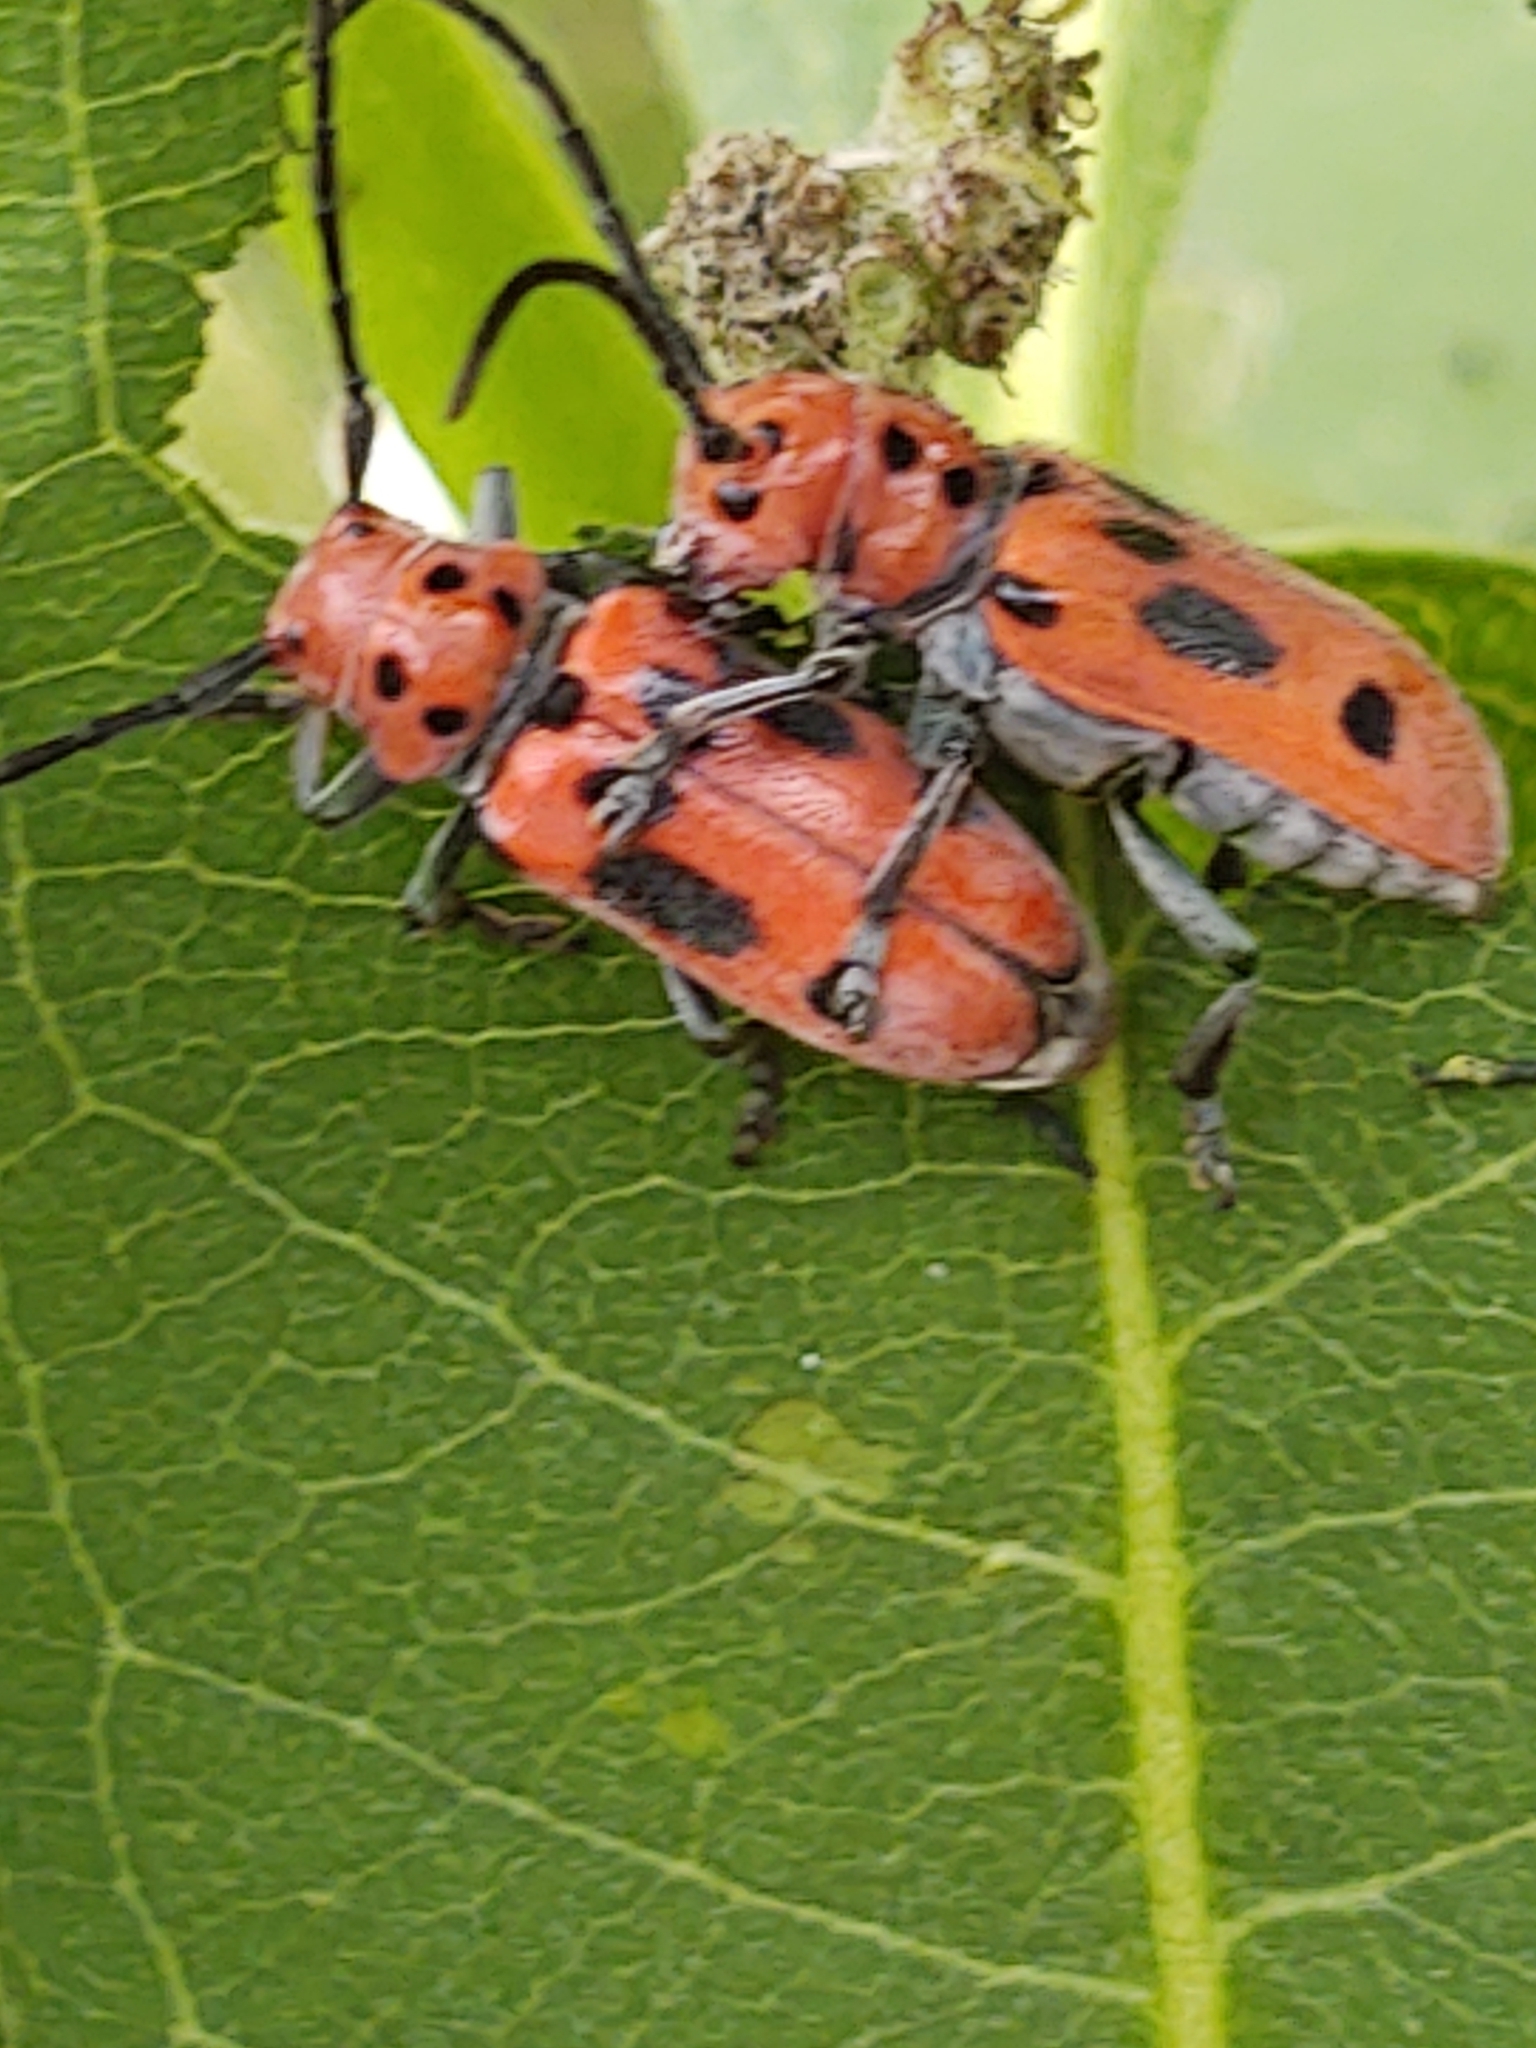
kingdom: Animalia
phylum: Arthropoda
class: Insecta
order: Coleoptera
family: Cerambycidae
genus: Tetraopes
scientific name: Tetraopes tetrophthalmus
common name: Red milkweed beetle
